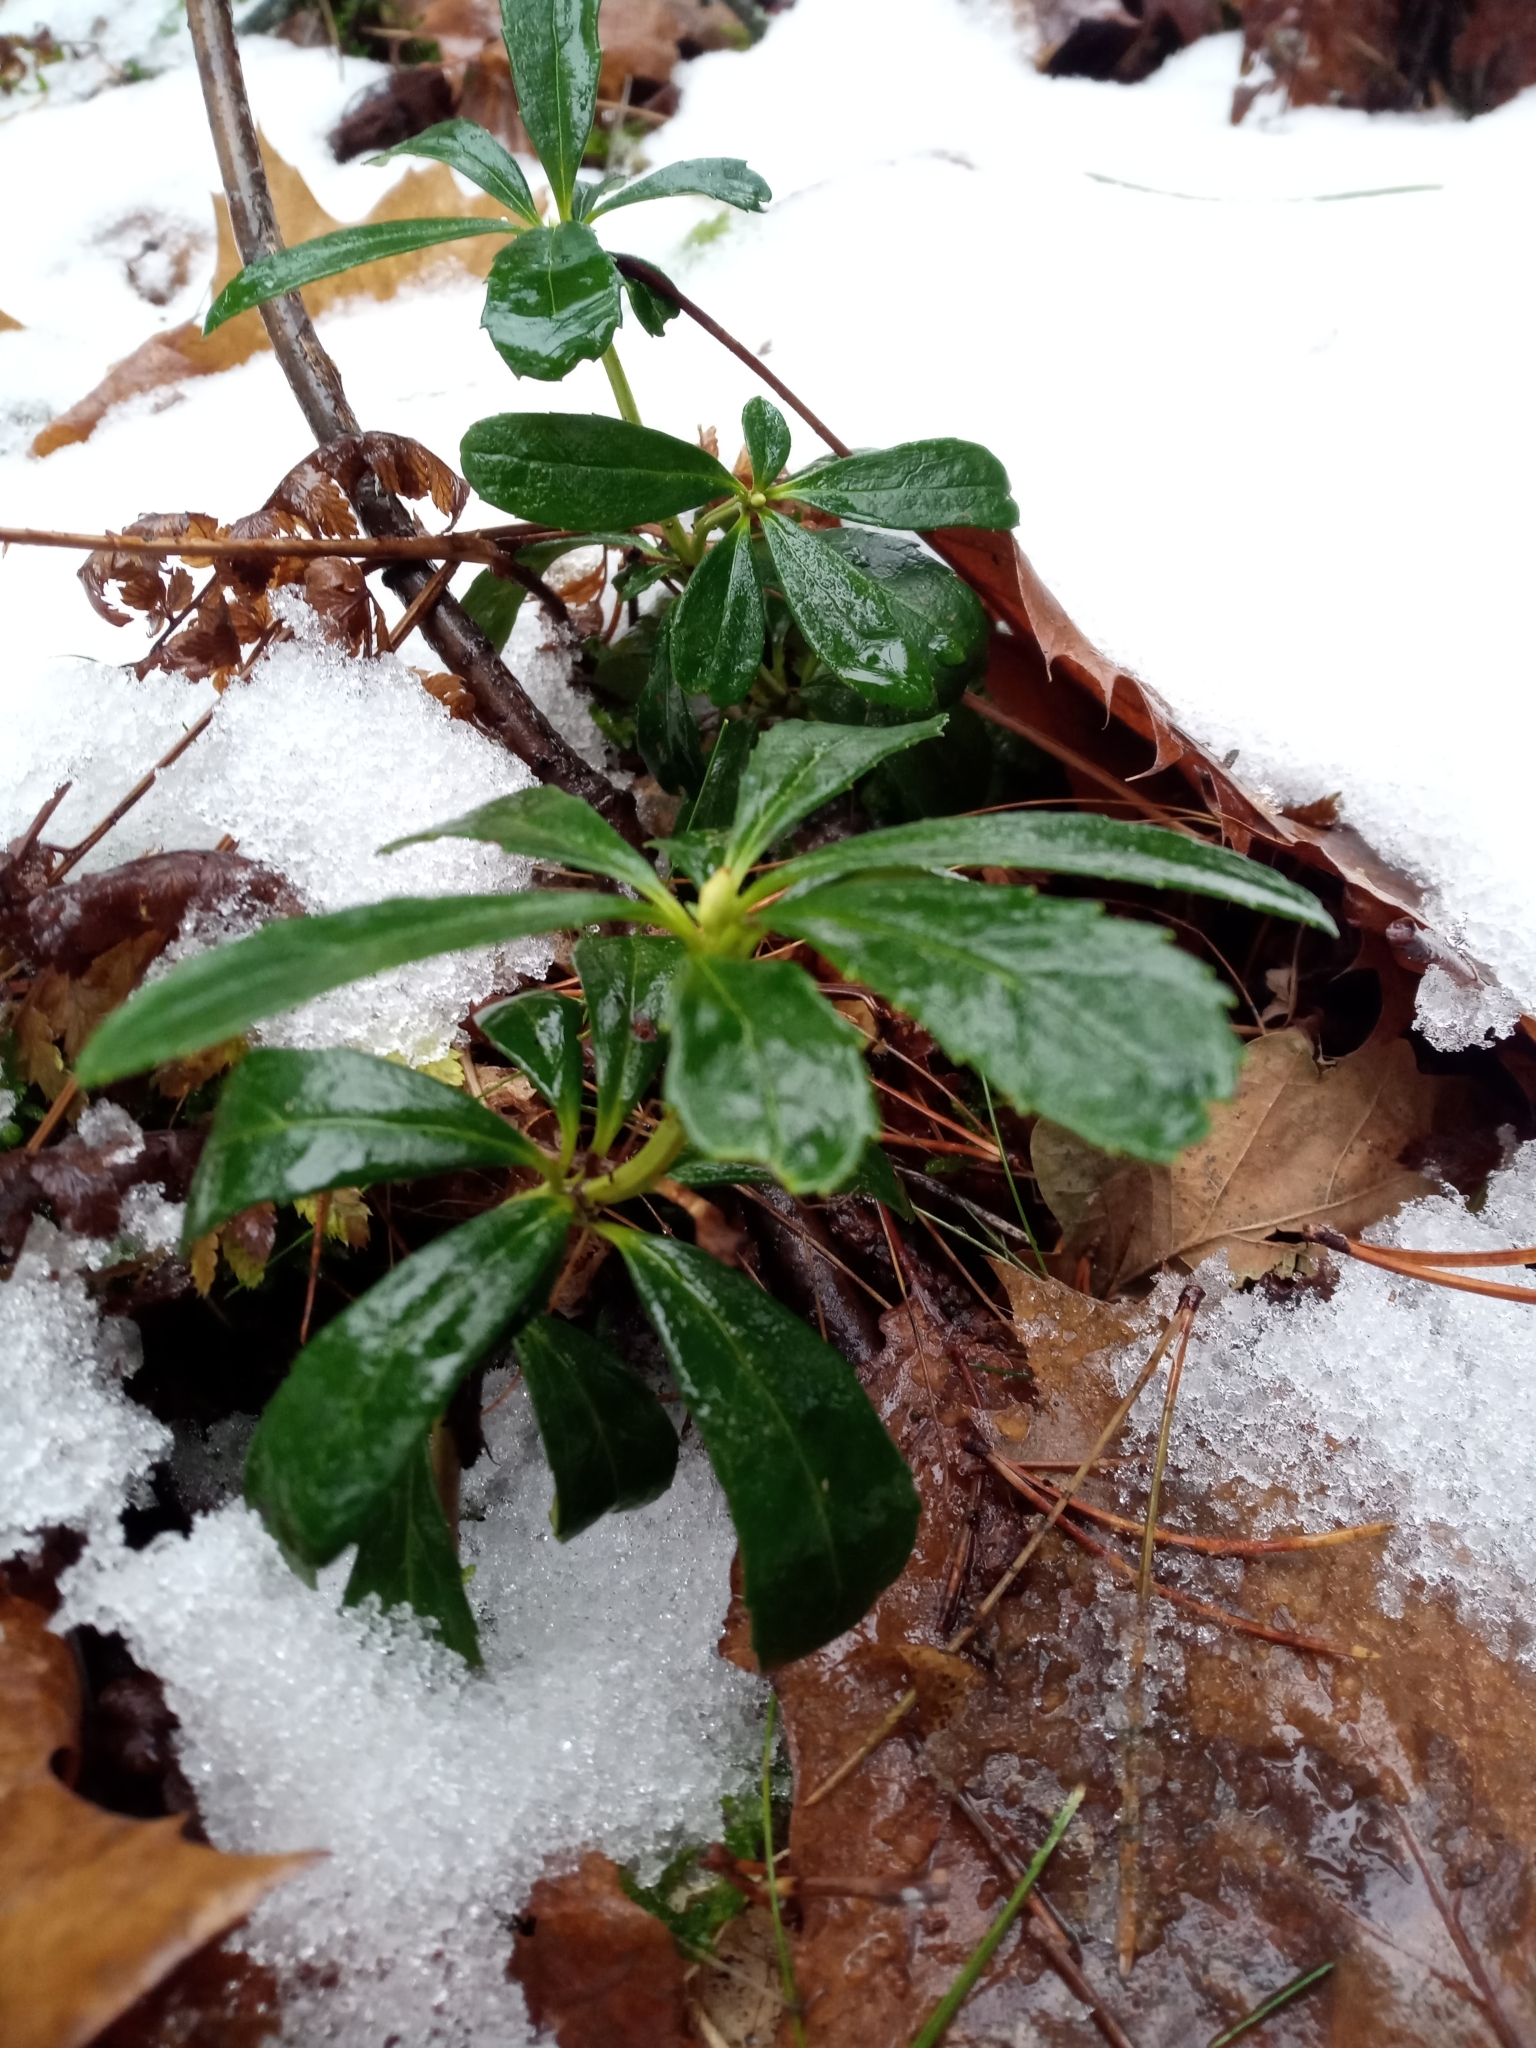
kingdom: Plantae
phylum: Tracheophyta
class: Magnoliopsida
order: Ericales
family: Ericaceae
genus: Chimaphila
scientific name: Chimaphila umbellata
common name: Pipsissewa
